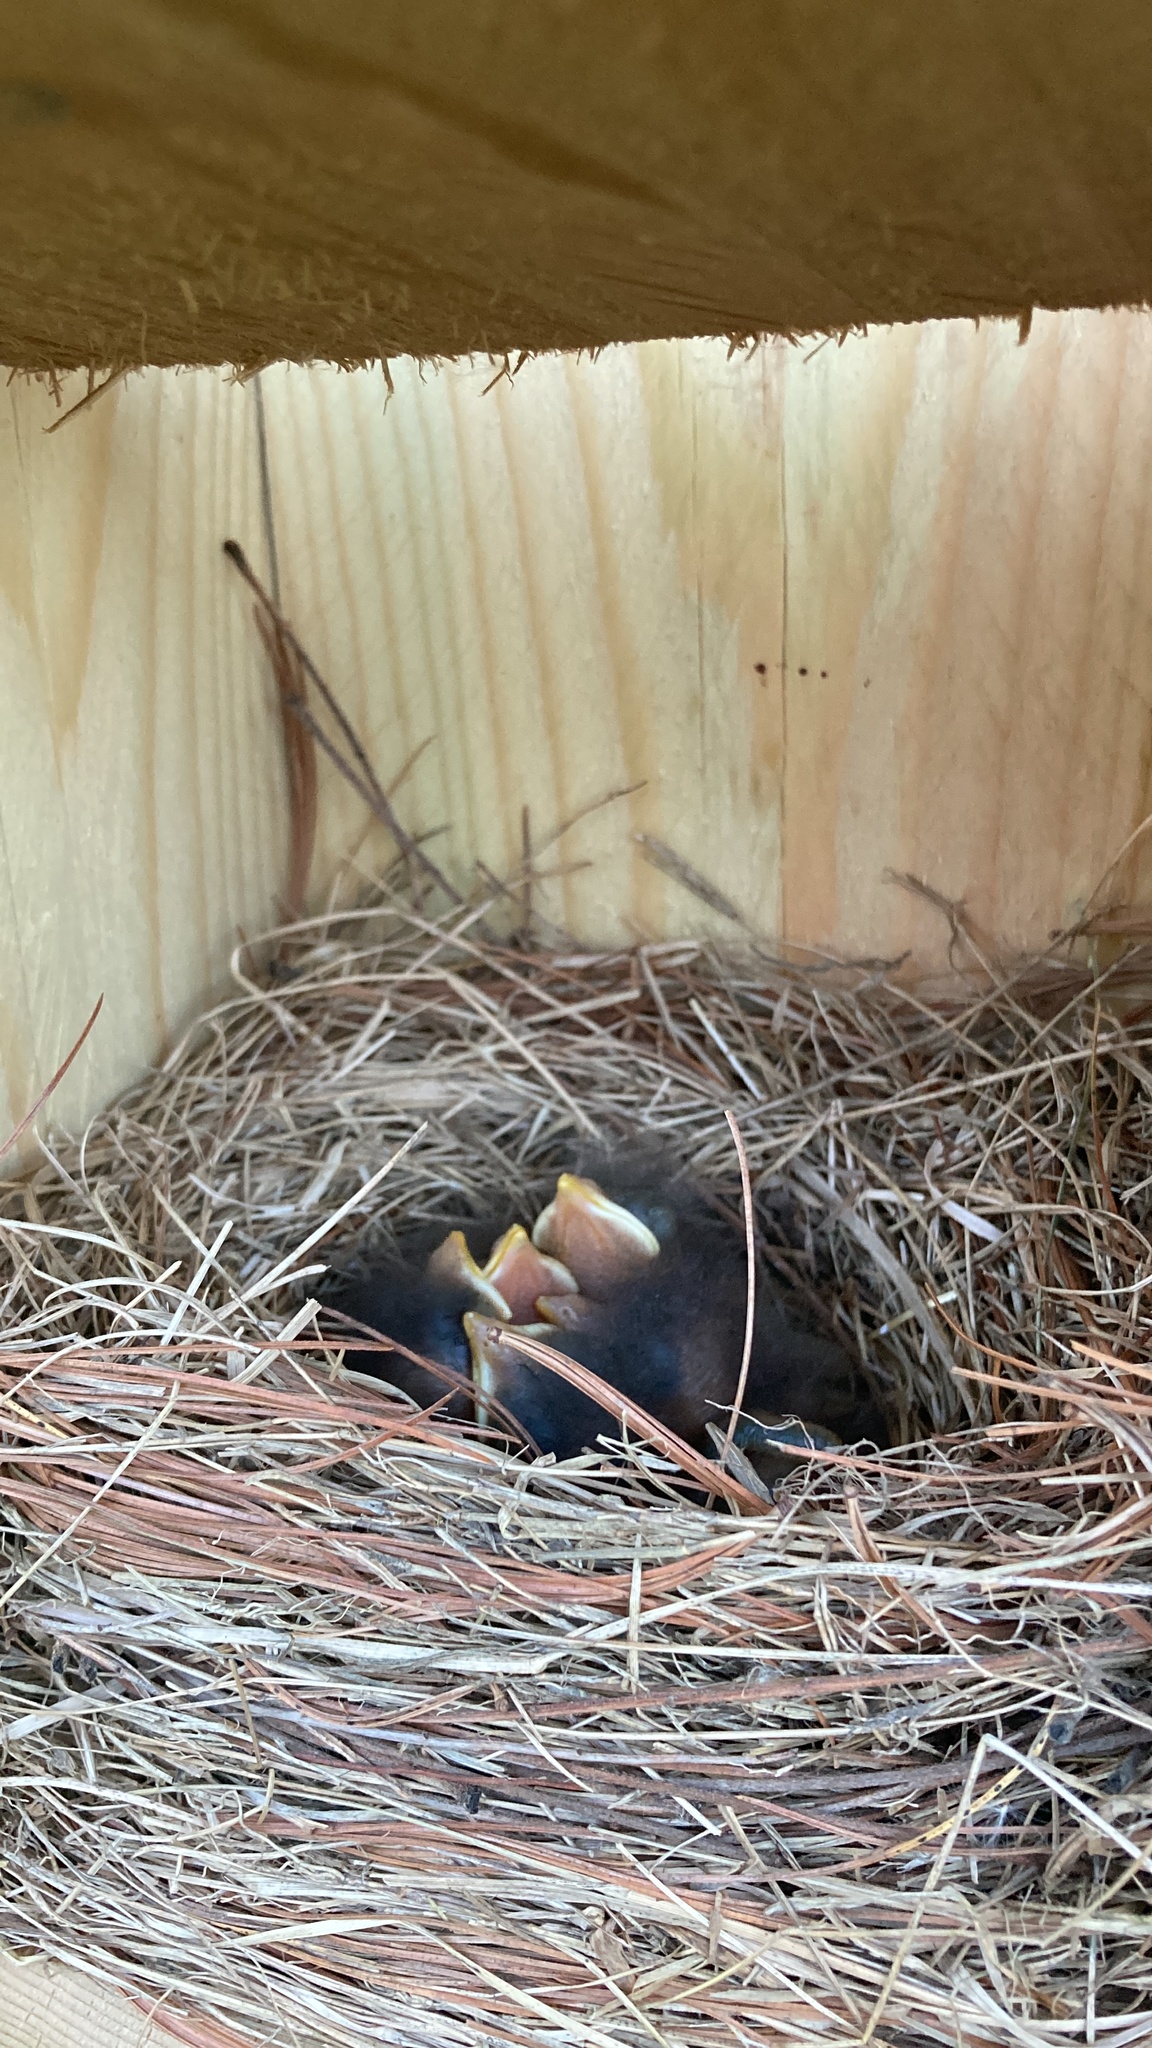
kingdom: Animalia
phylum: Chordata
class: Aves
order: Passeriformes
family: Turdidae
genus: Sialia
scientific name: Sialia sialis
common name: Eastern bluebird
